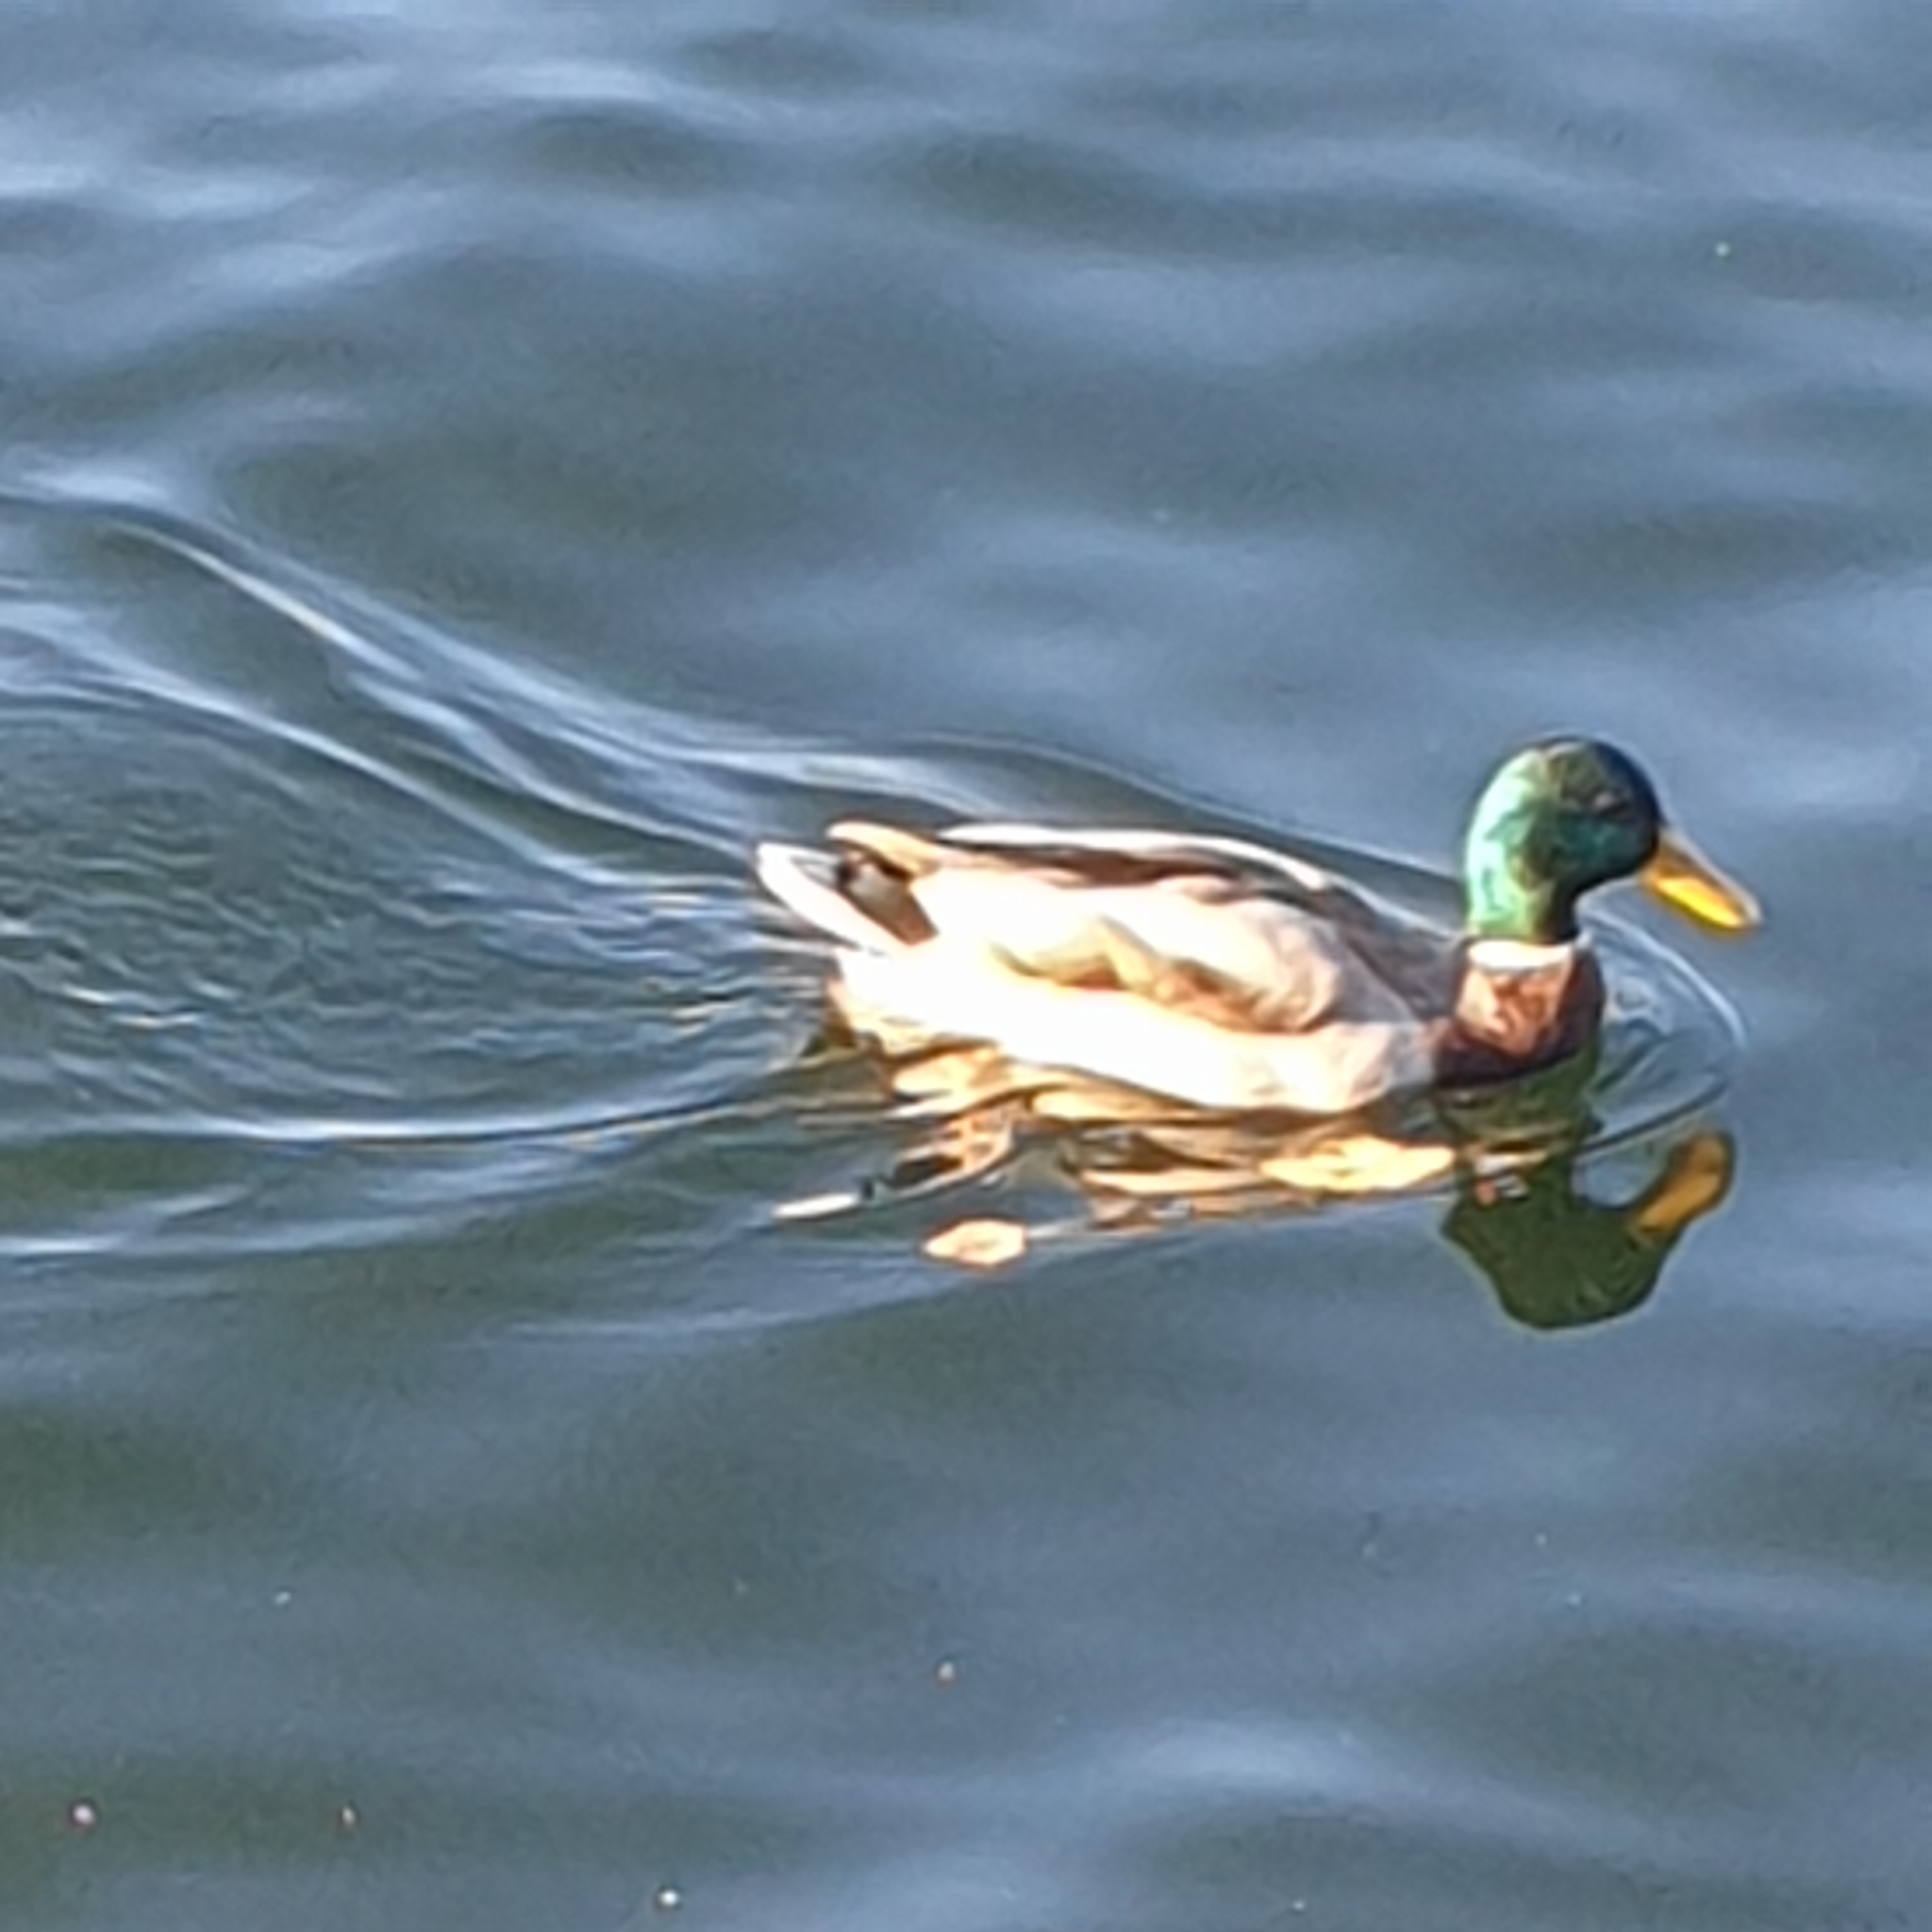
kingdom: Animalia
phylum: Chordata
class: Aves
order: Anseriformes
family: Anatidae
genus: Anas
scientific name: Anas platyrhynchos
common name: Mallard
